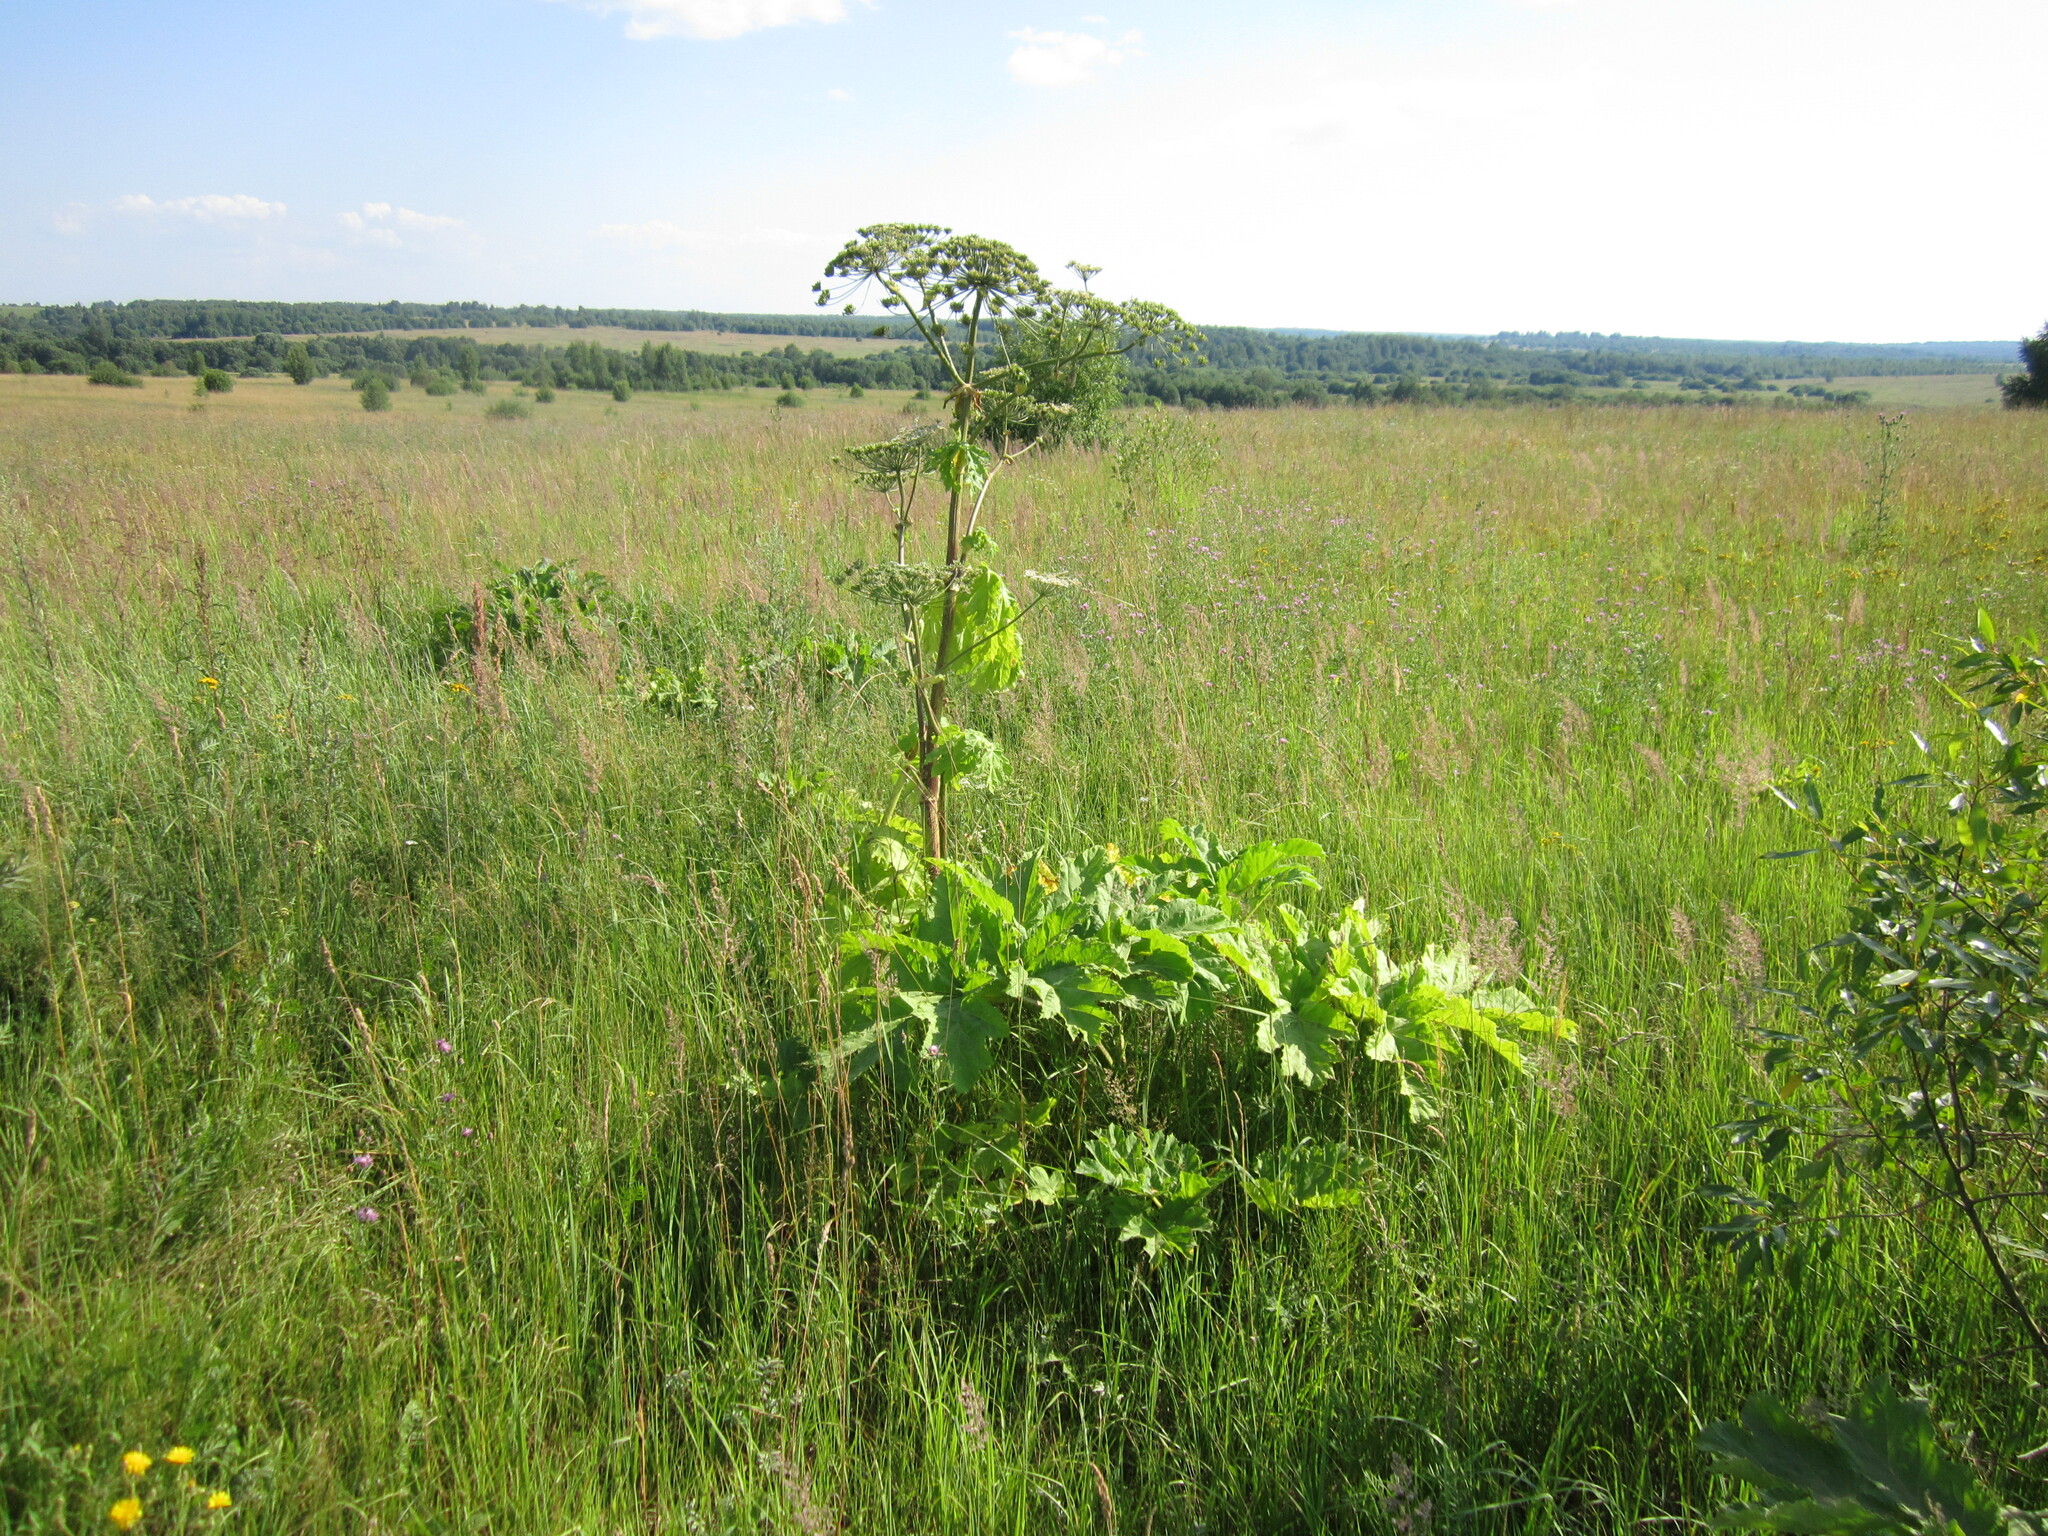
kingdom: Plantae
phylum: Tracheophyta
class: Magnoliopsida
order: Apiales
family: Apiaceae
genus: Heracleum
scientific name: Heracleum sosnowskyi
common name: Sosnowsky's hogweed
